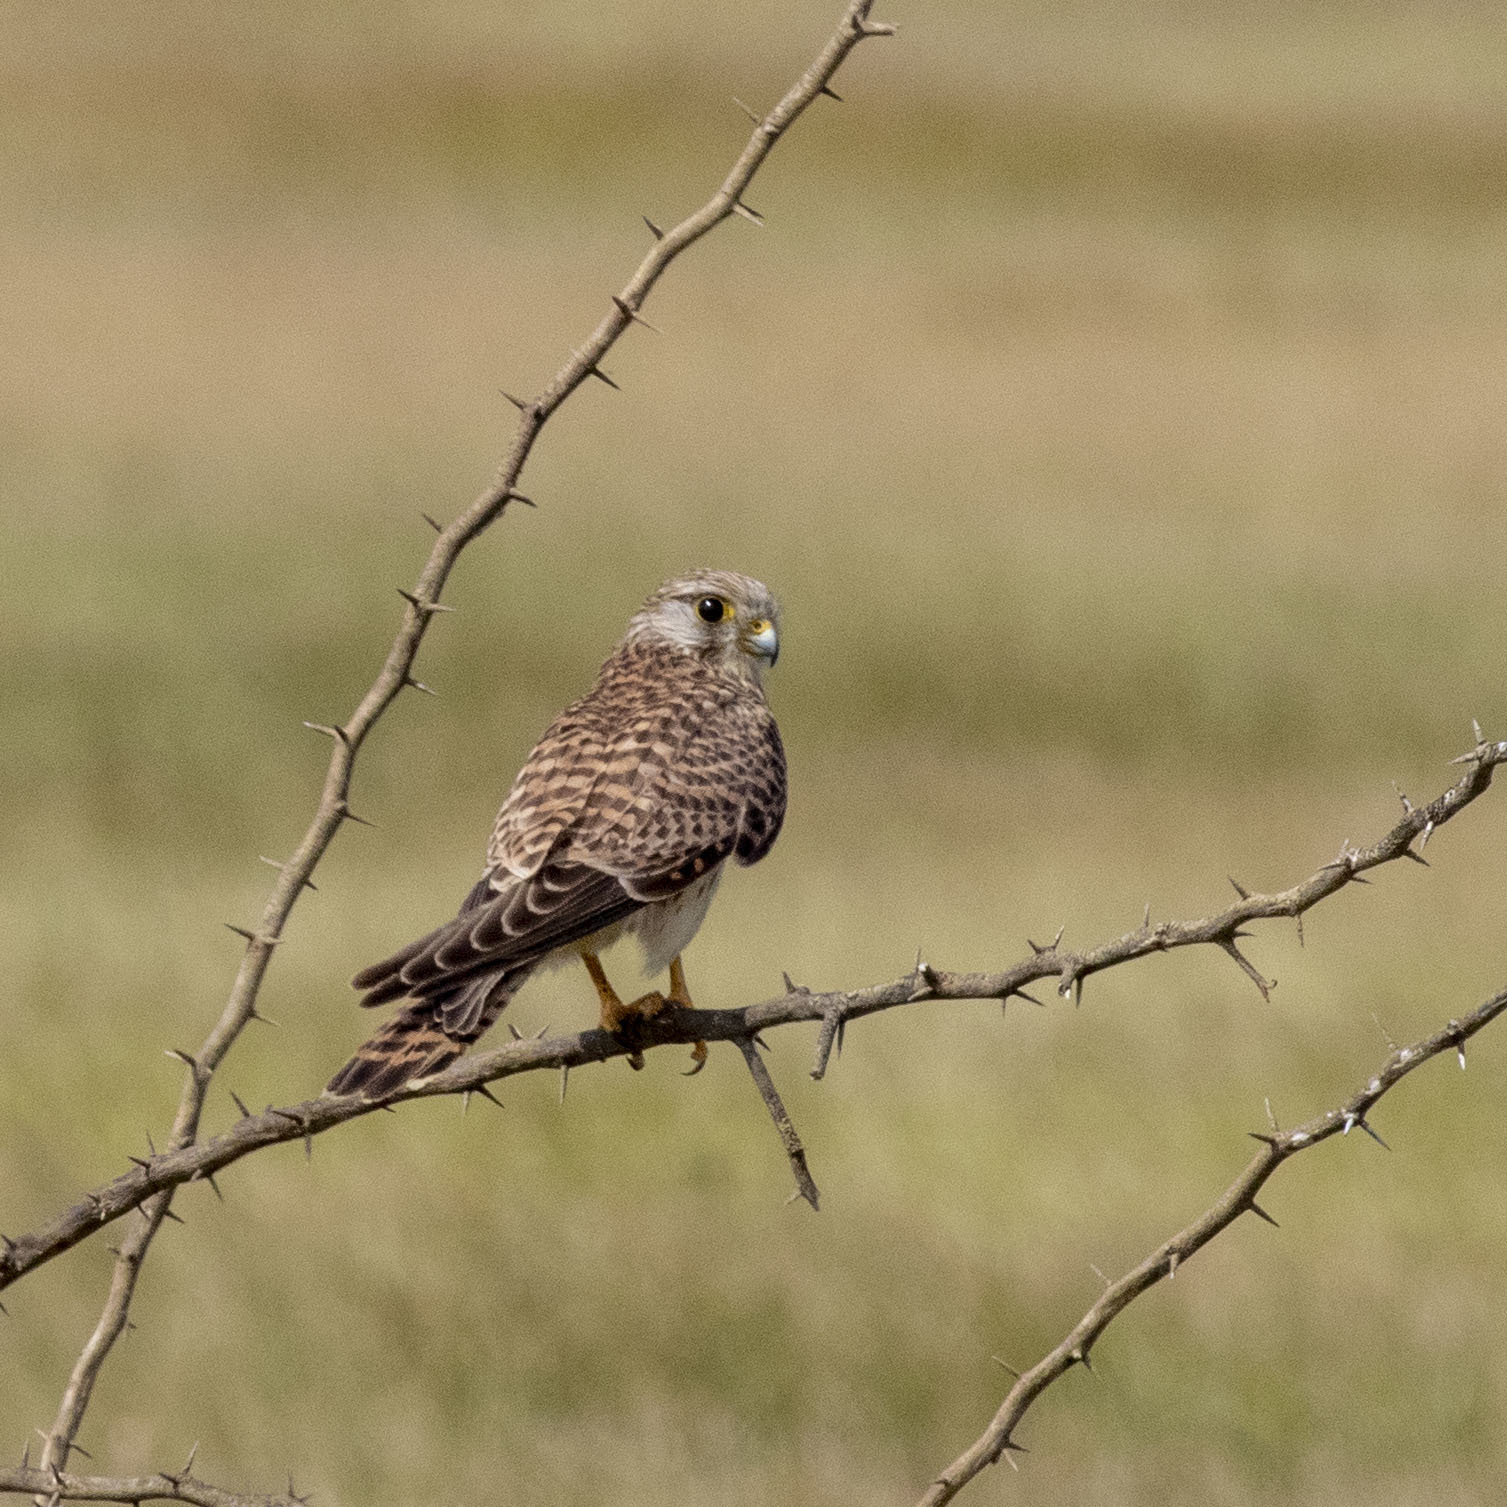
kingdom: Animalia
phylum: Chordata
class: Aves
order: Falconiformes
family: Falconidae
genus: Falco
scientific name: Falco tinnunculus
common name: Common kestrel
